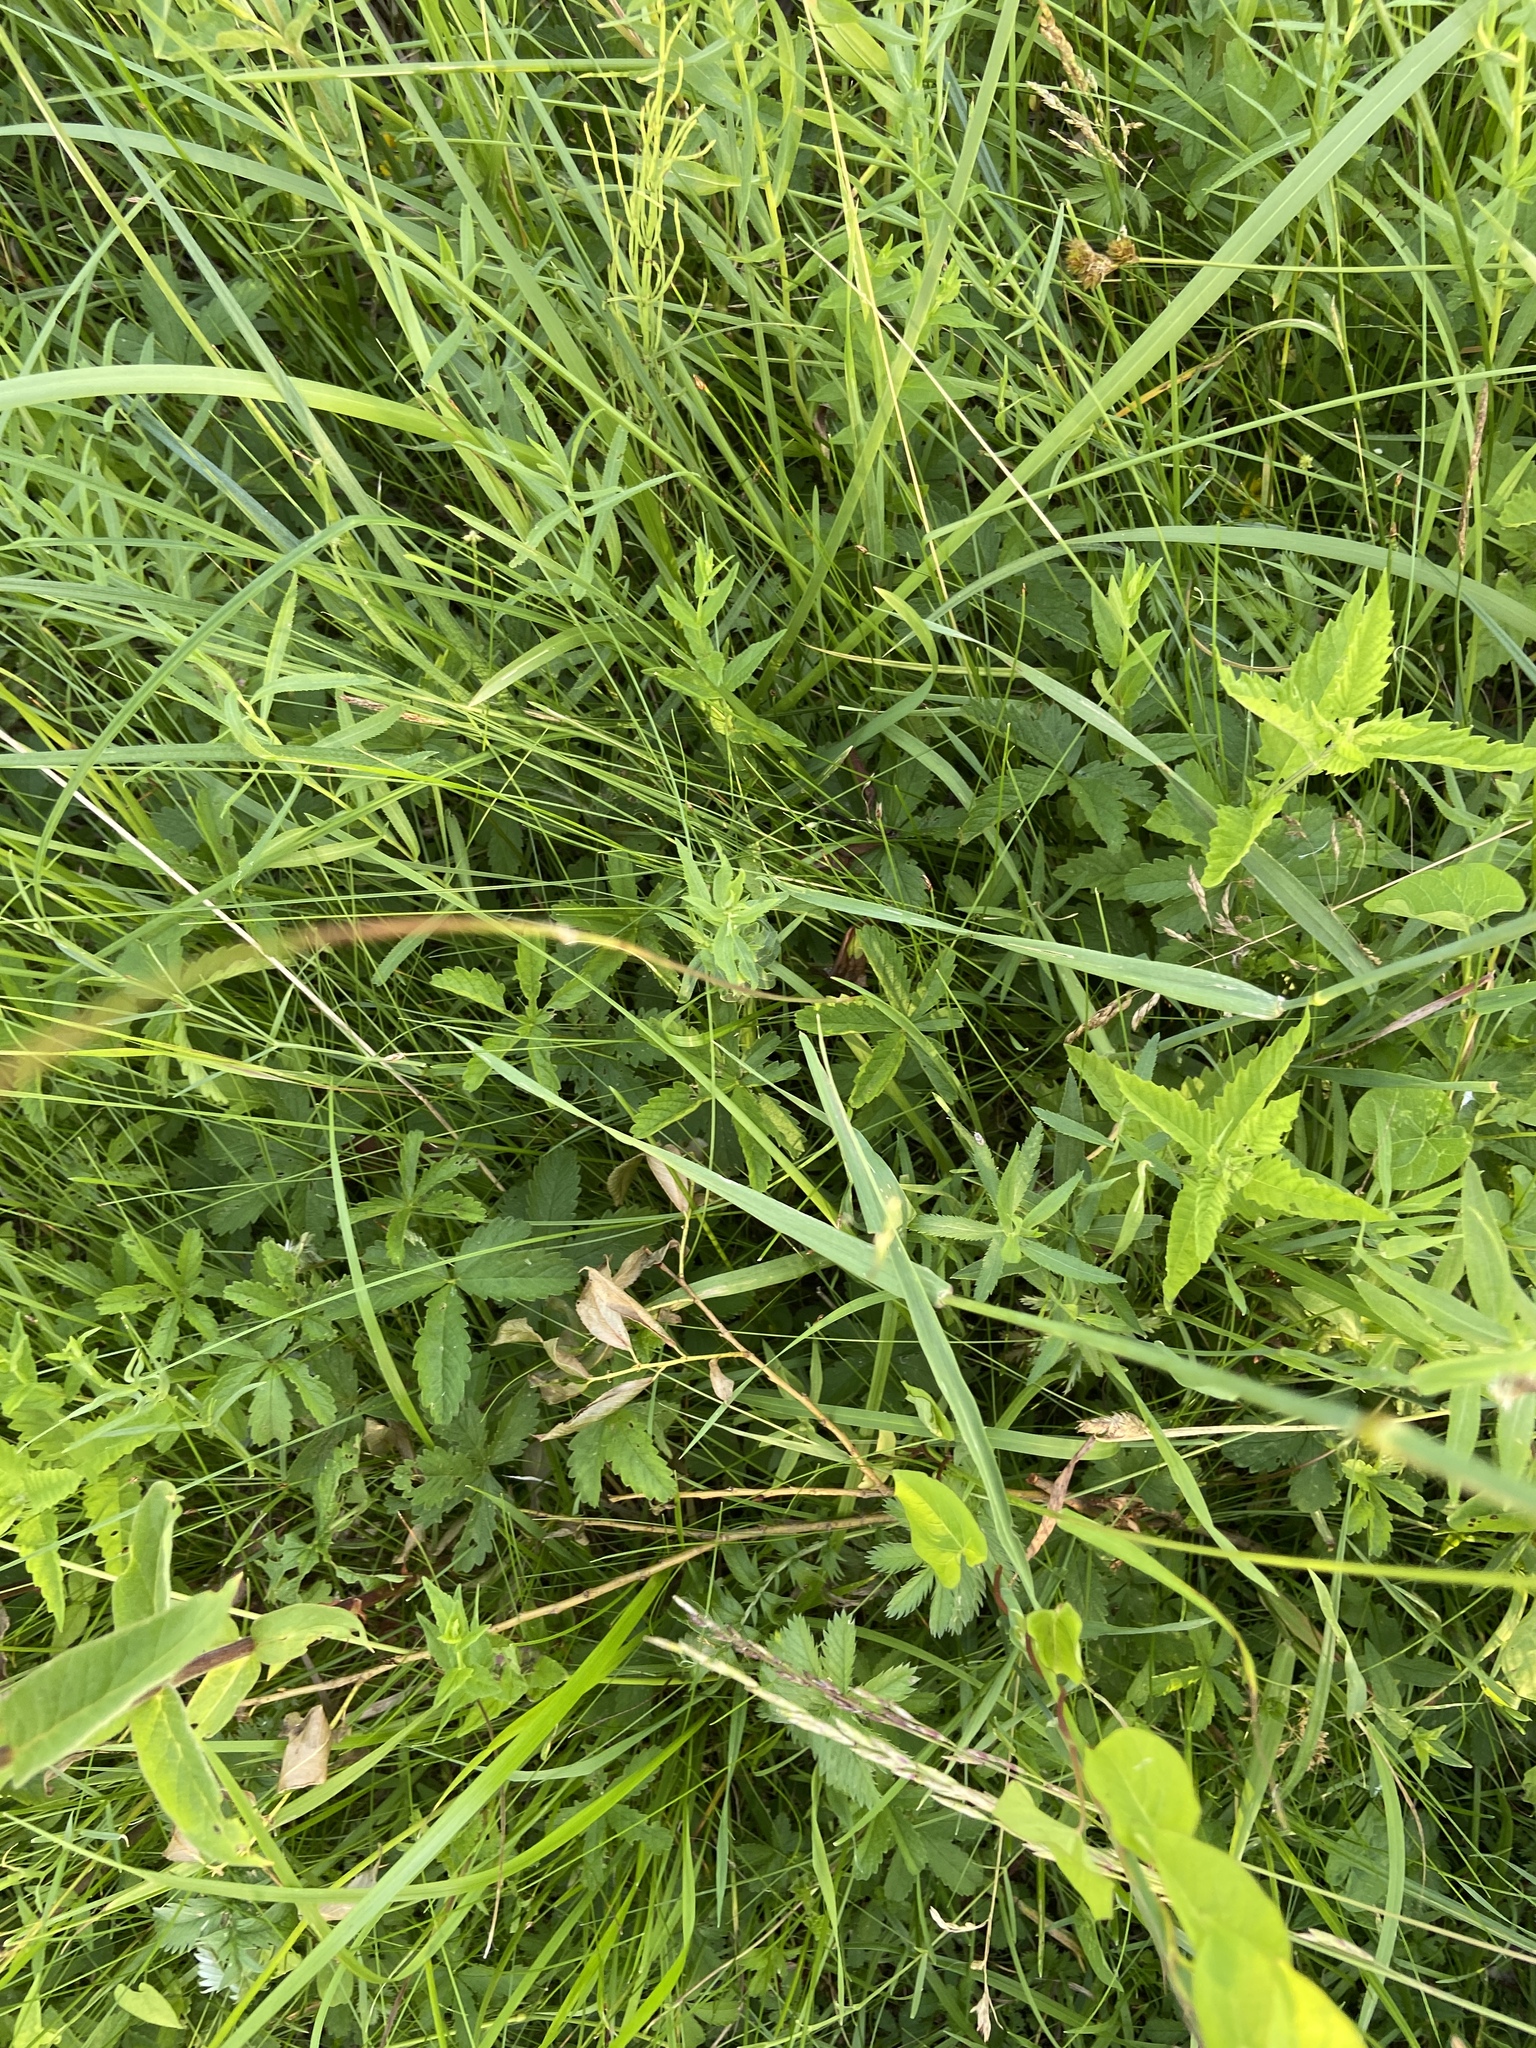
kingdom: Plantae
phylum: Tracheophyta
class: Magnoliopsida
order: Rosales
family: Rosaceae
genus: Comarum
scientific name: Comarum palustre
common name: Marsh cinquefoil
